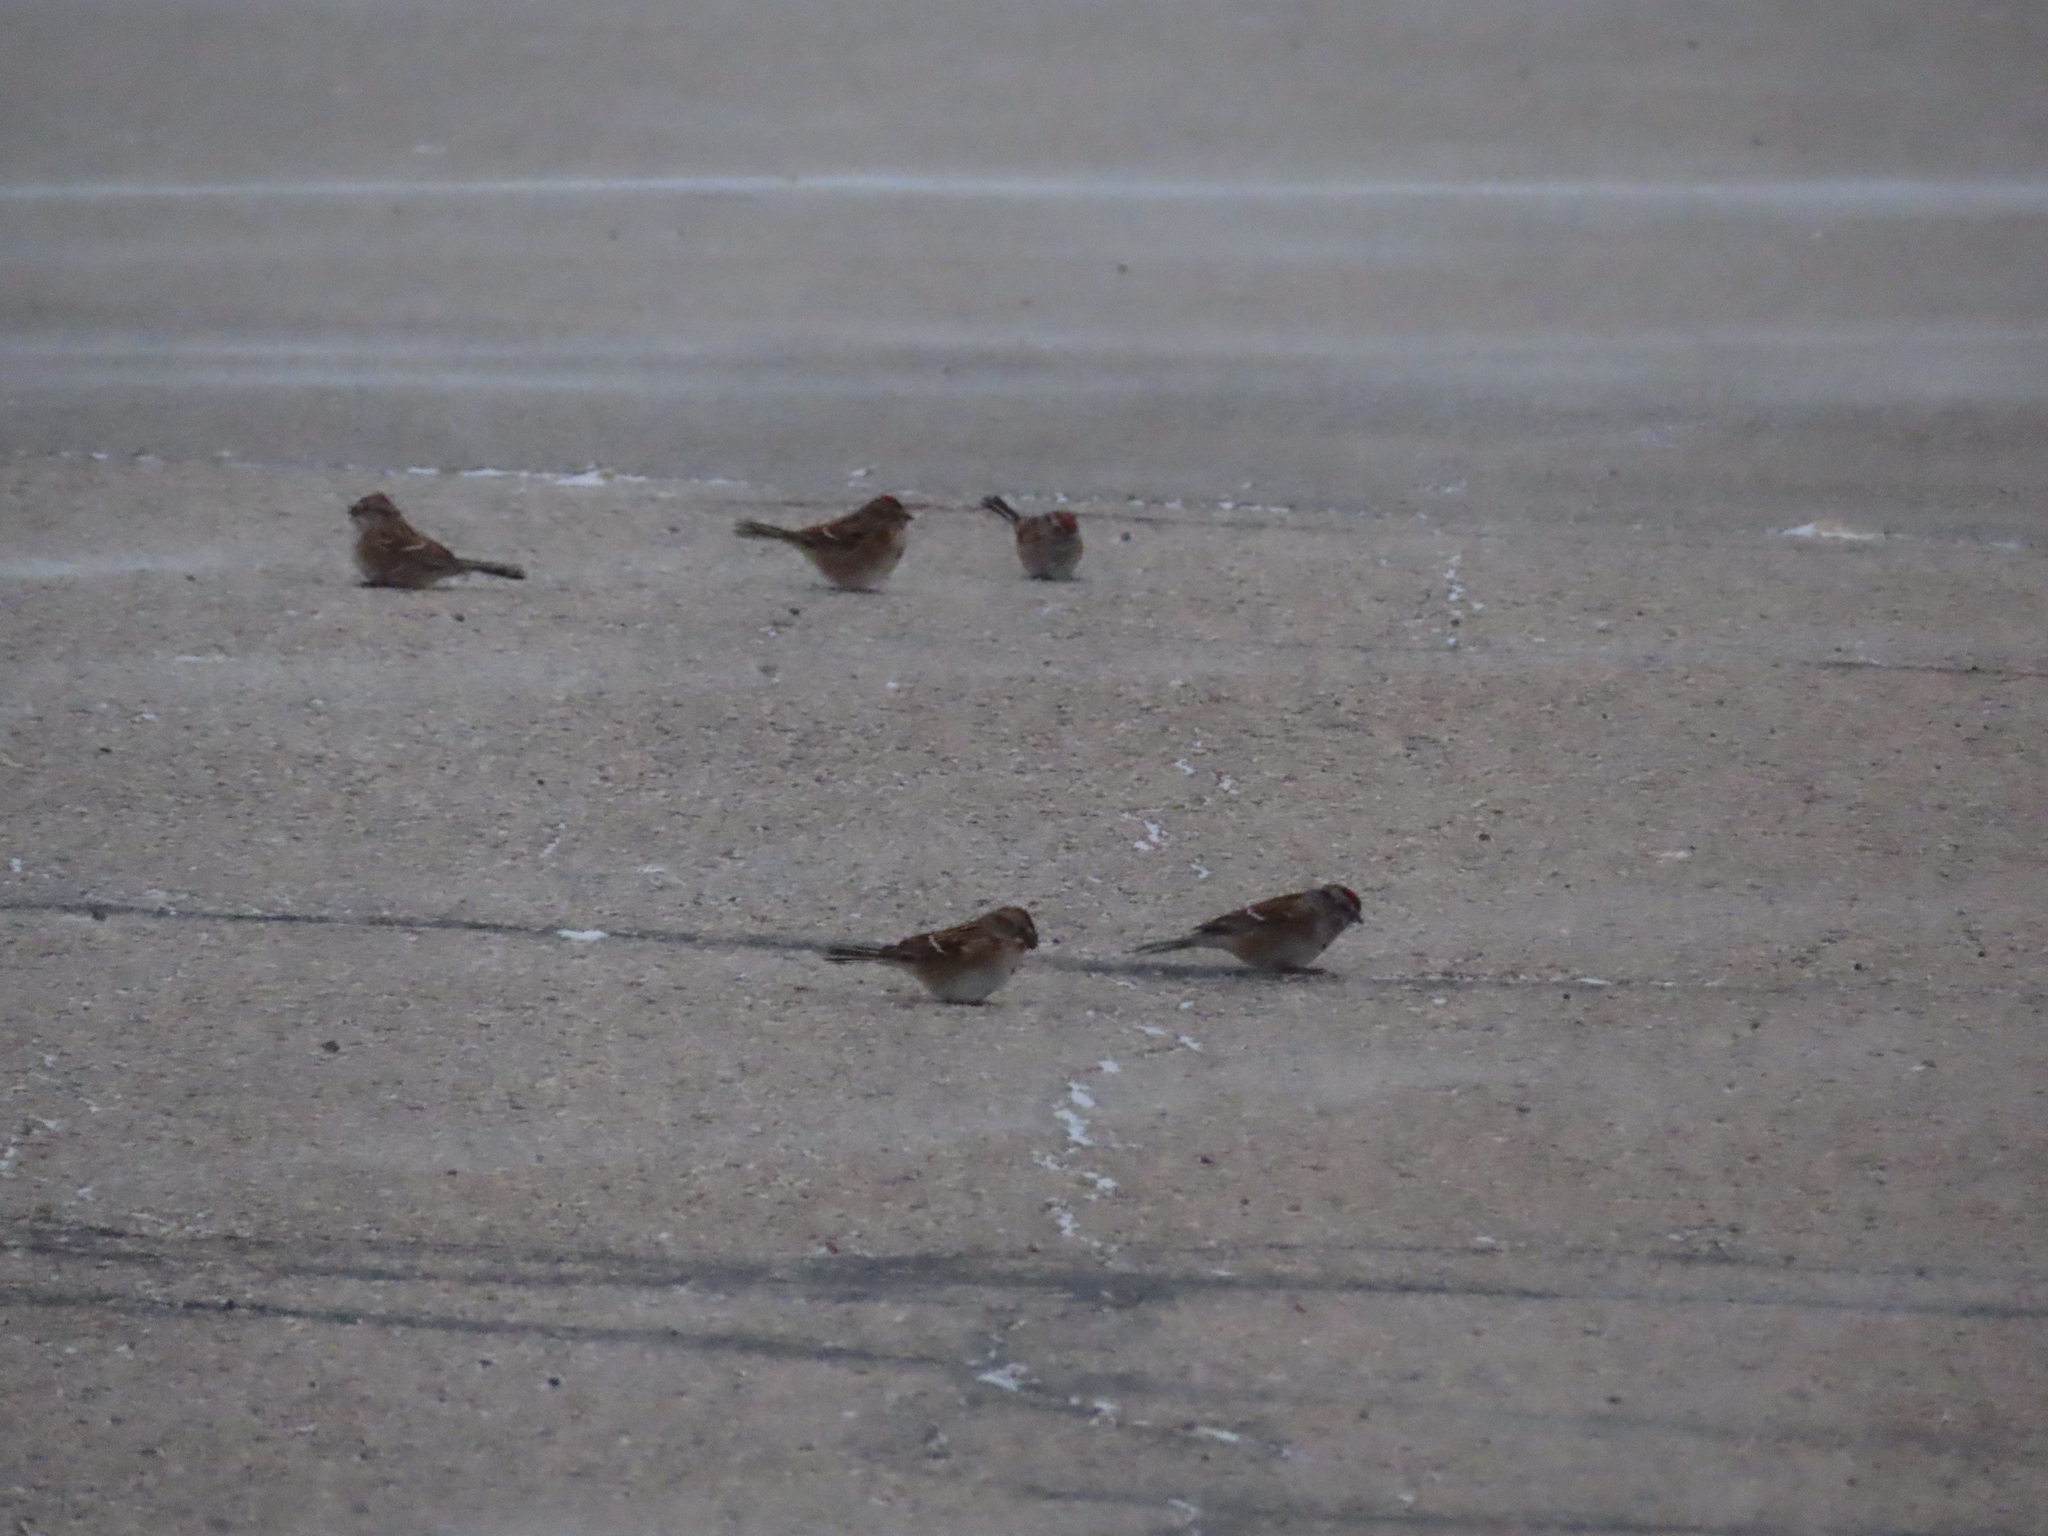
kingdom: Animalia
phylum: Chordata
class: Aves
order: Passeriformes
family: Passerellidae
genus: Spizelloides
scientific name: Spizelloides arborea
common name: American tree sparrow
